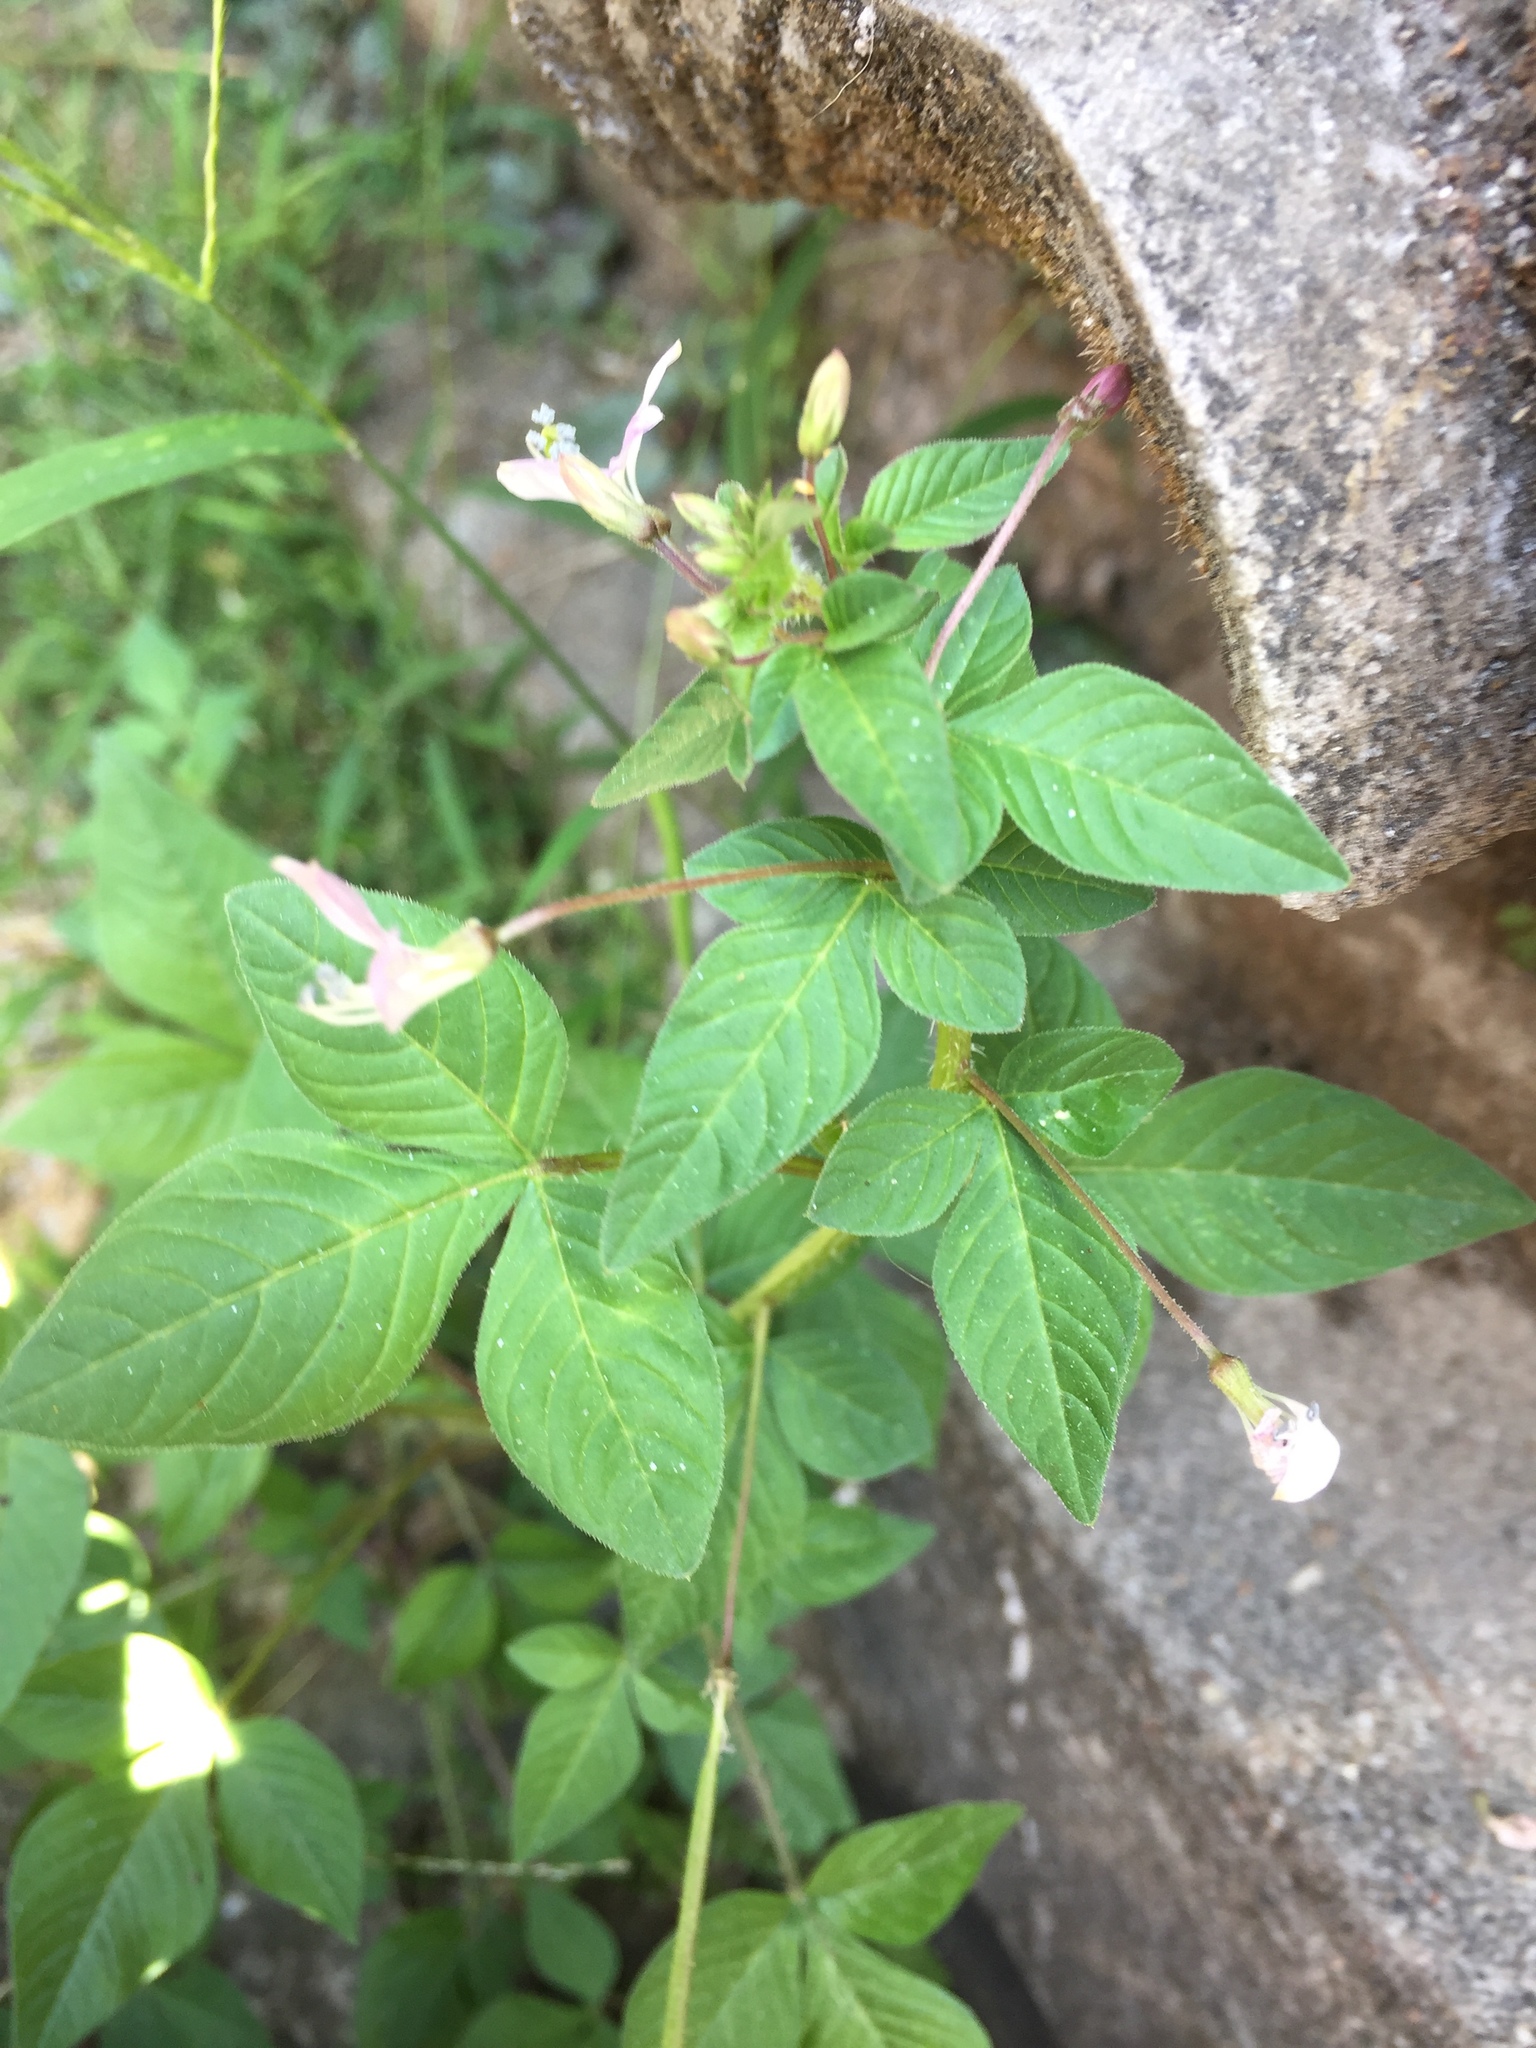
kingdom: Plantae
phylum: Tracheophyta
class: Magnoliopsida
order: Brassicales
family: Cleomaceae
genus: Sieruela
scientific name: Sieruela rutidosperma
